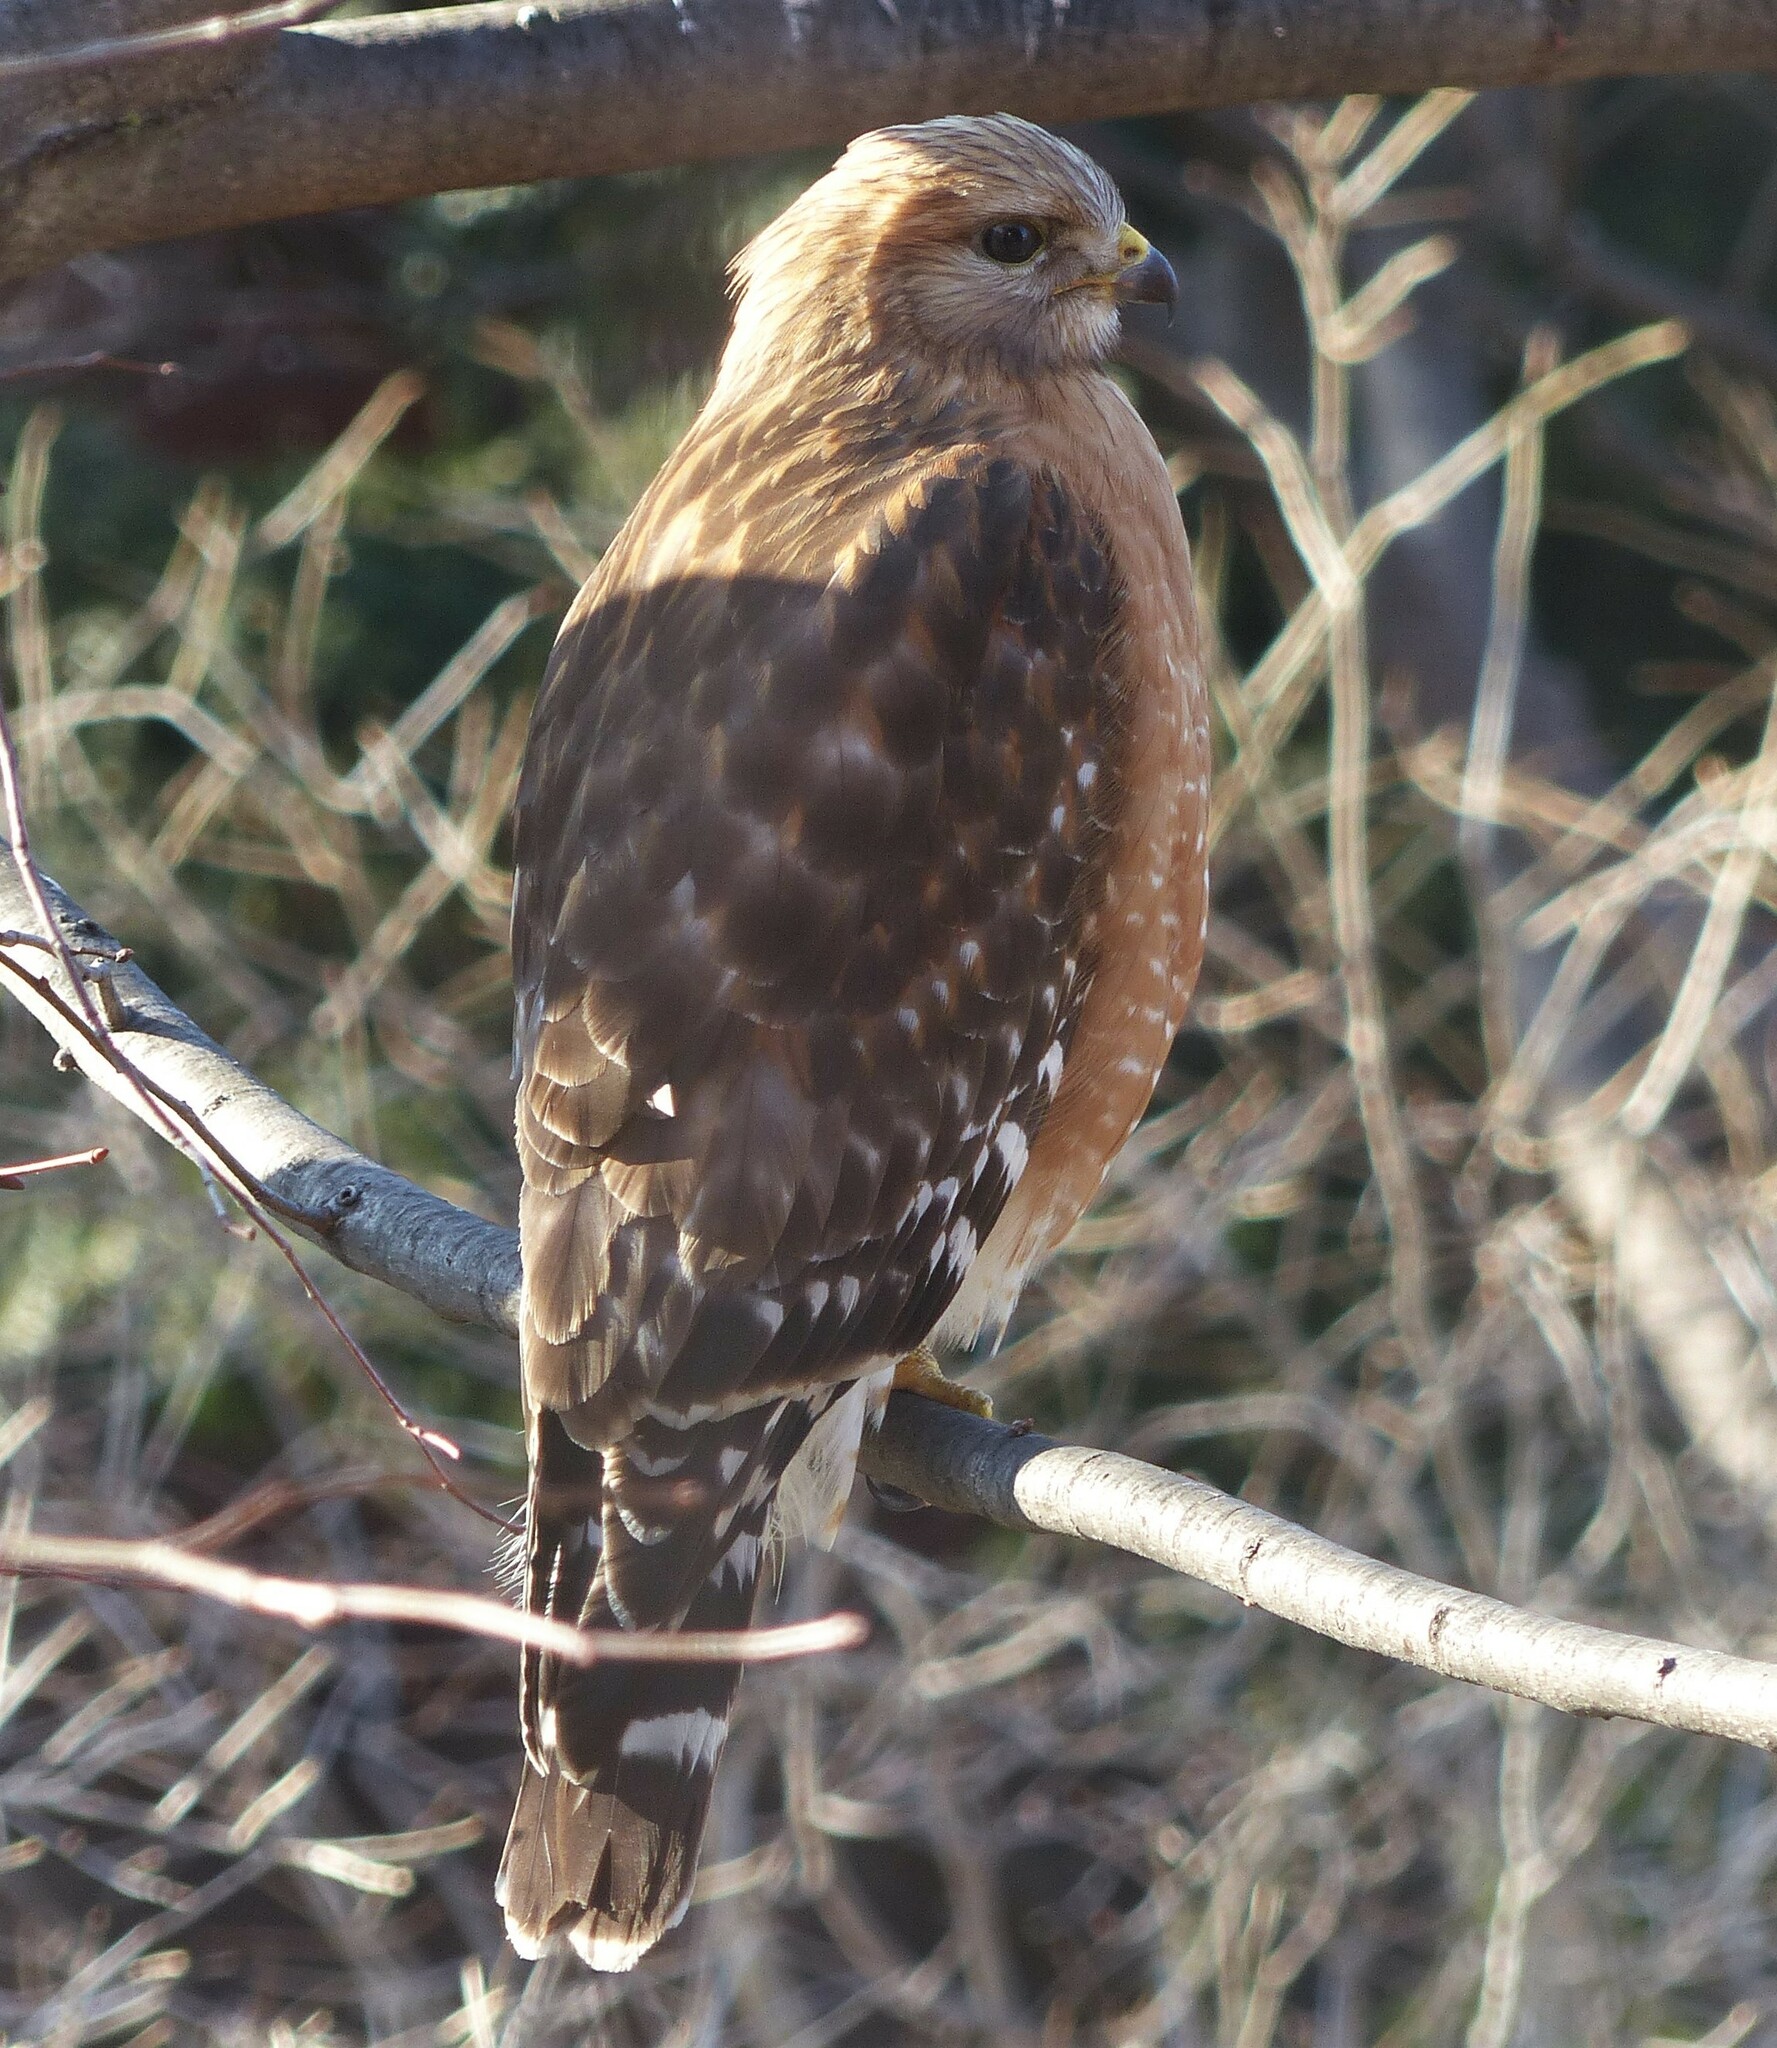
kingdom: Animalia
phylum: Chordata
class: Aves
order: Accipitriformes
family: Accipitridae
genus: Buteo
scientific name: Buteo lineatus
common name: Red-shouldered hawk
